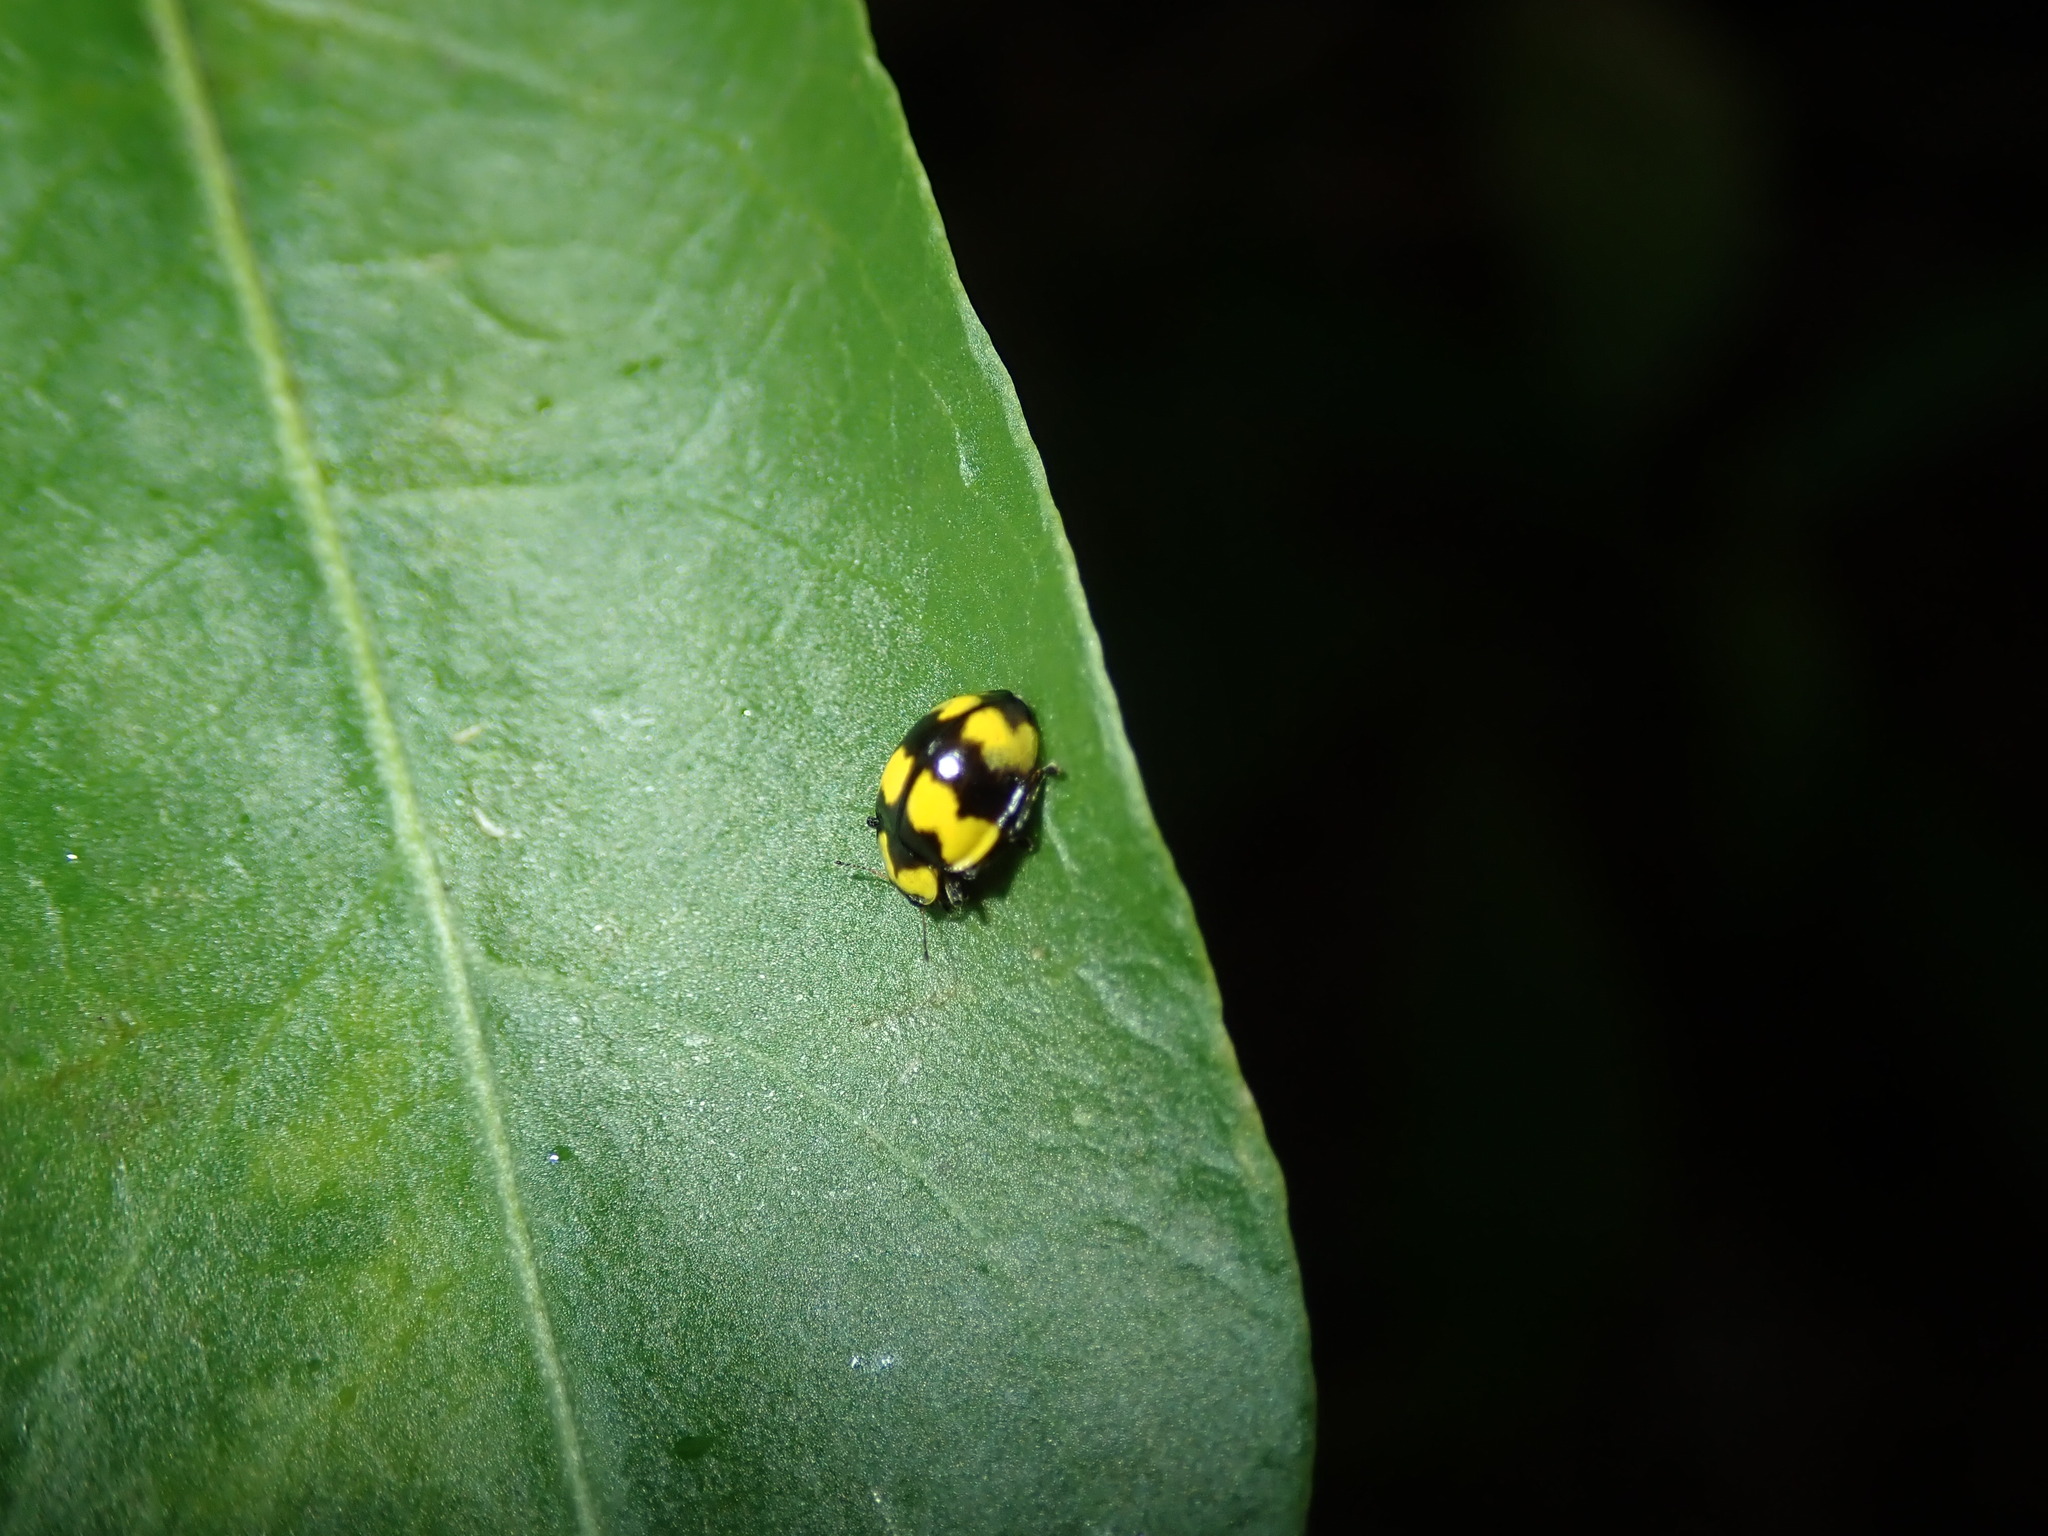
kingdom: Animalia
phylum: Arthropoda
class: Insecta
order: Coleoptera
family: Coccinellidae
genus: Illeis
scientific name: Illeis galbula
